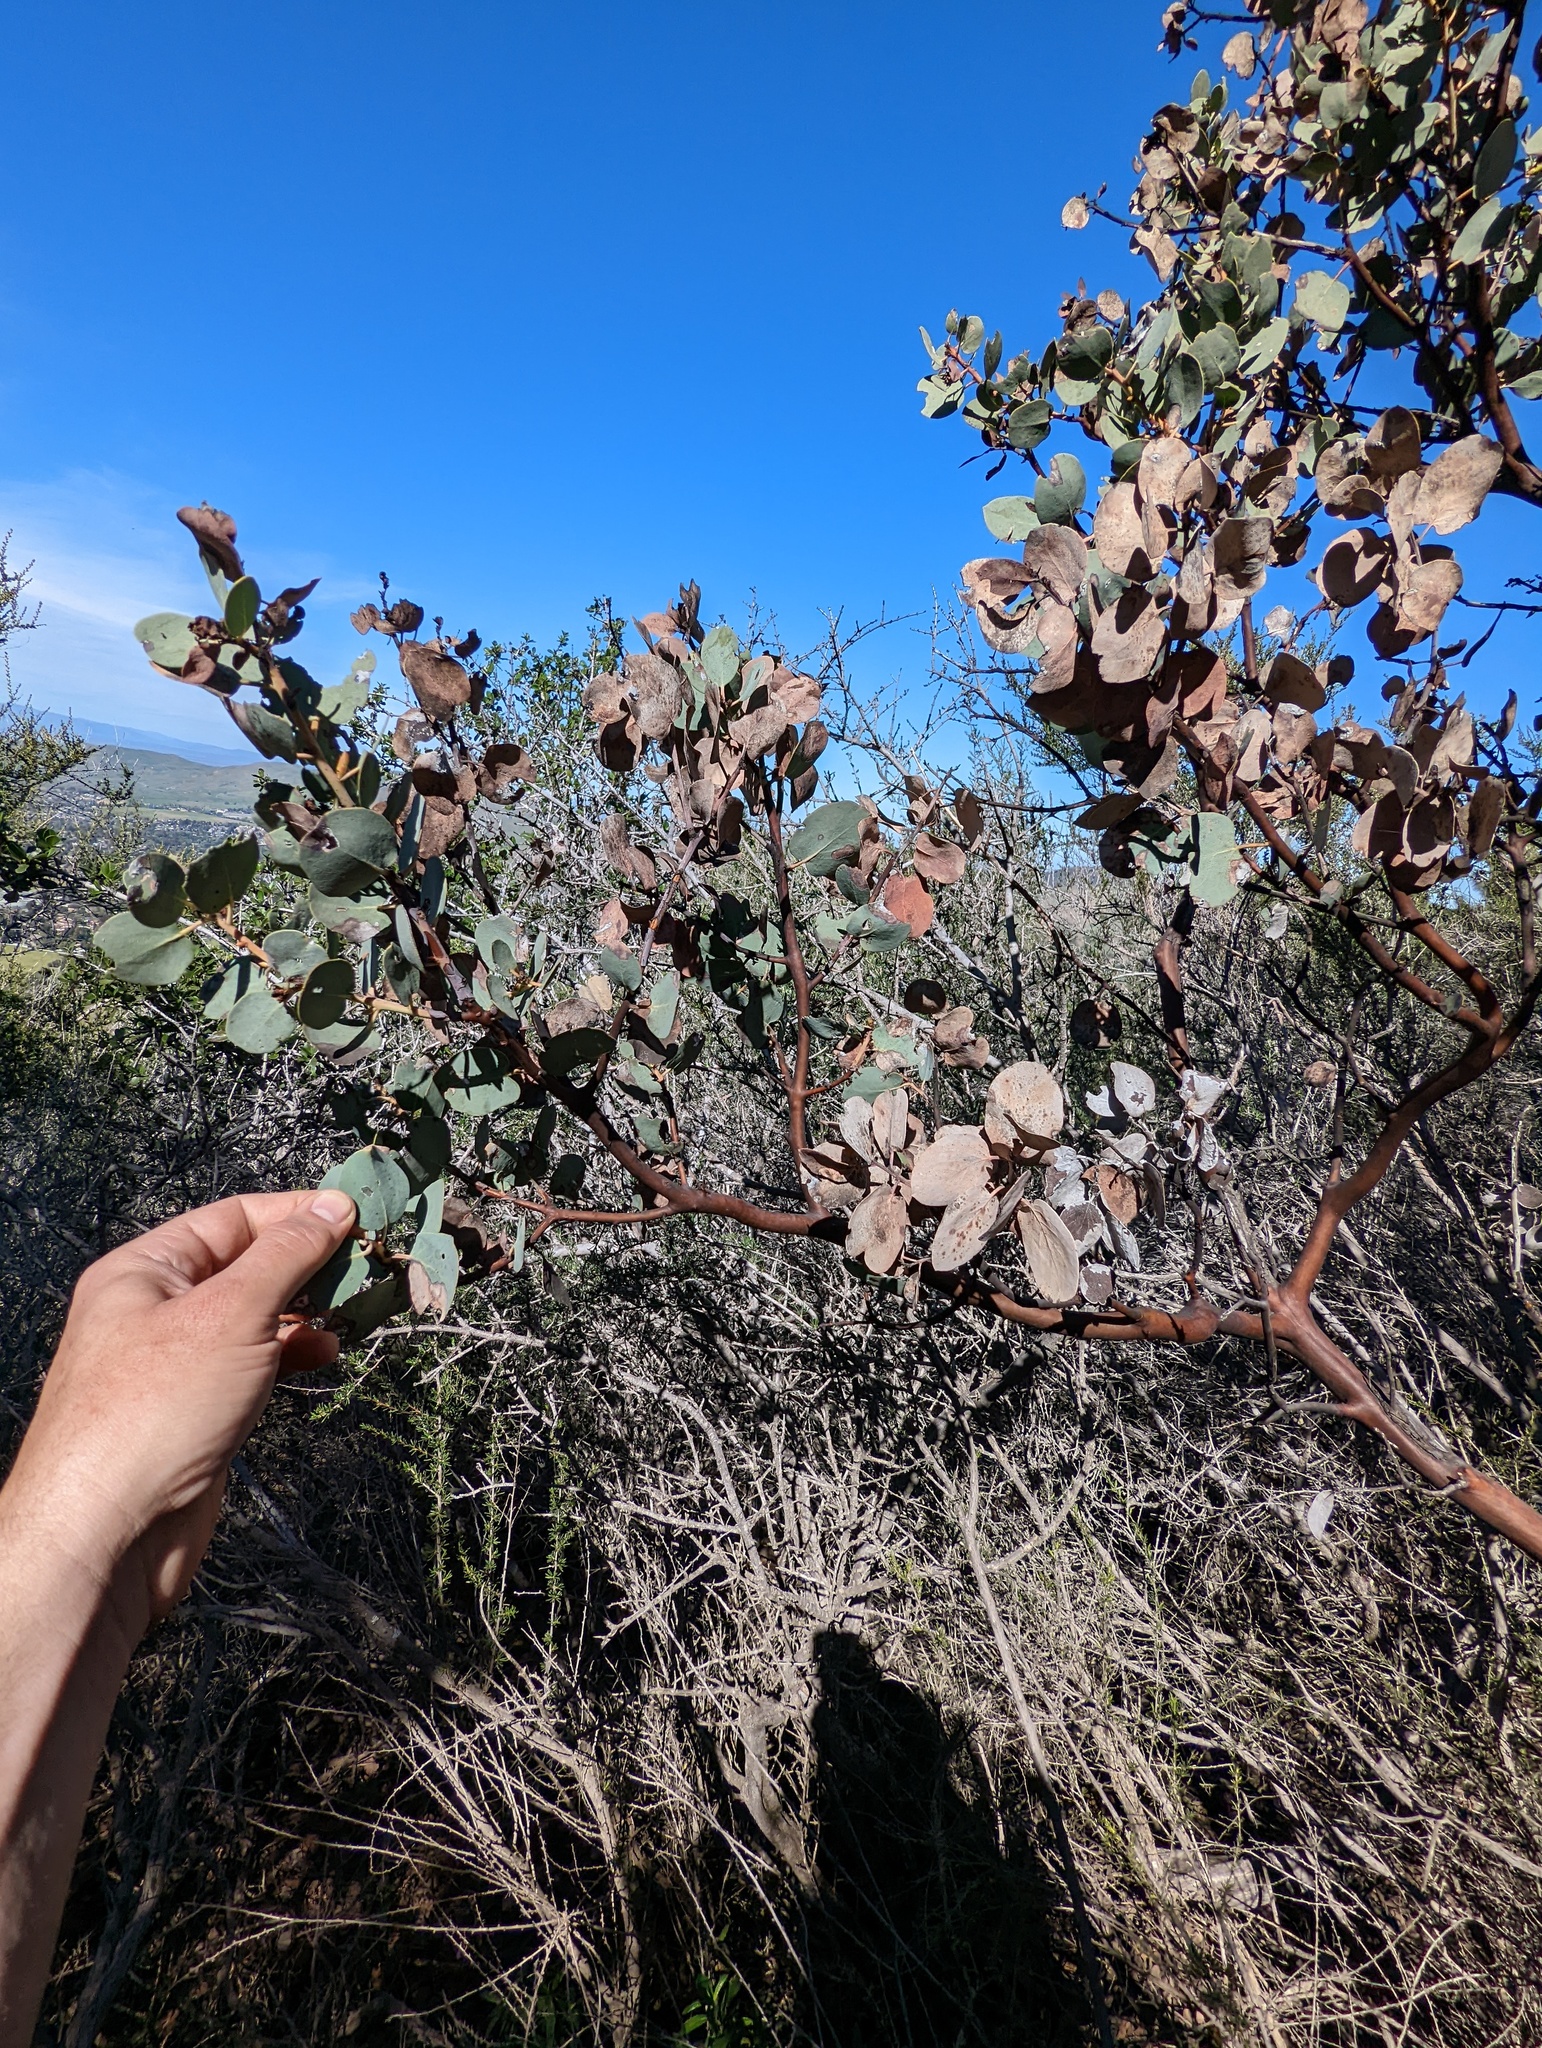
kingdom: Plantae
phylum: Tracheophyta
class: Magnoliopsida
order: Ericales
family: Ericaceae
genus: Arctostaphylos
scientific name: Arctostaphylos glauca
